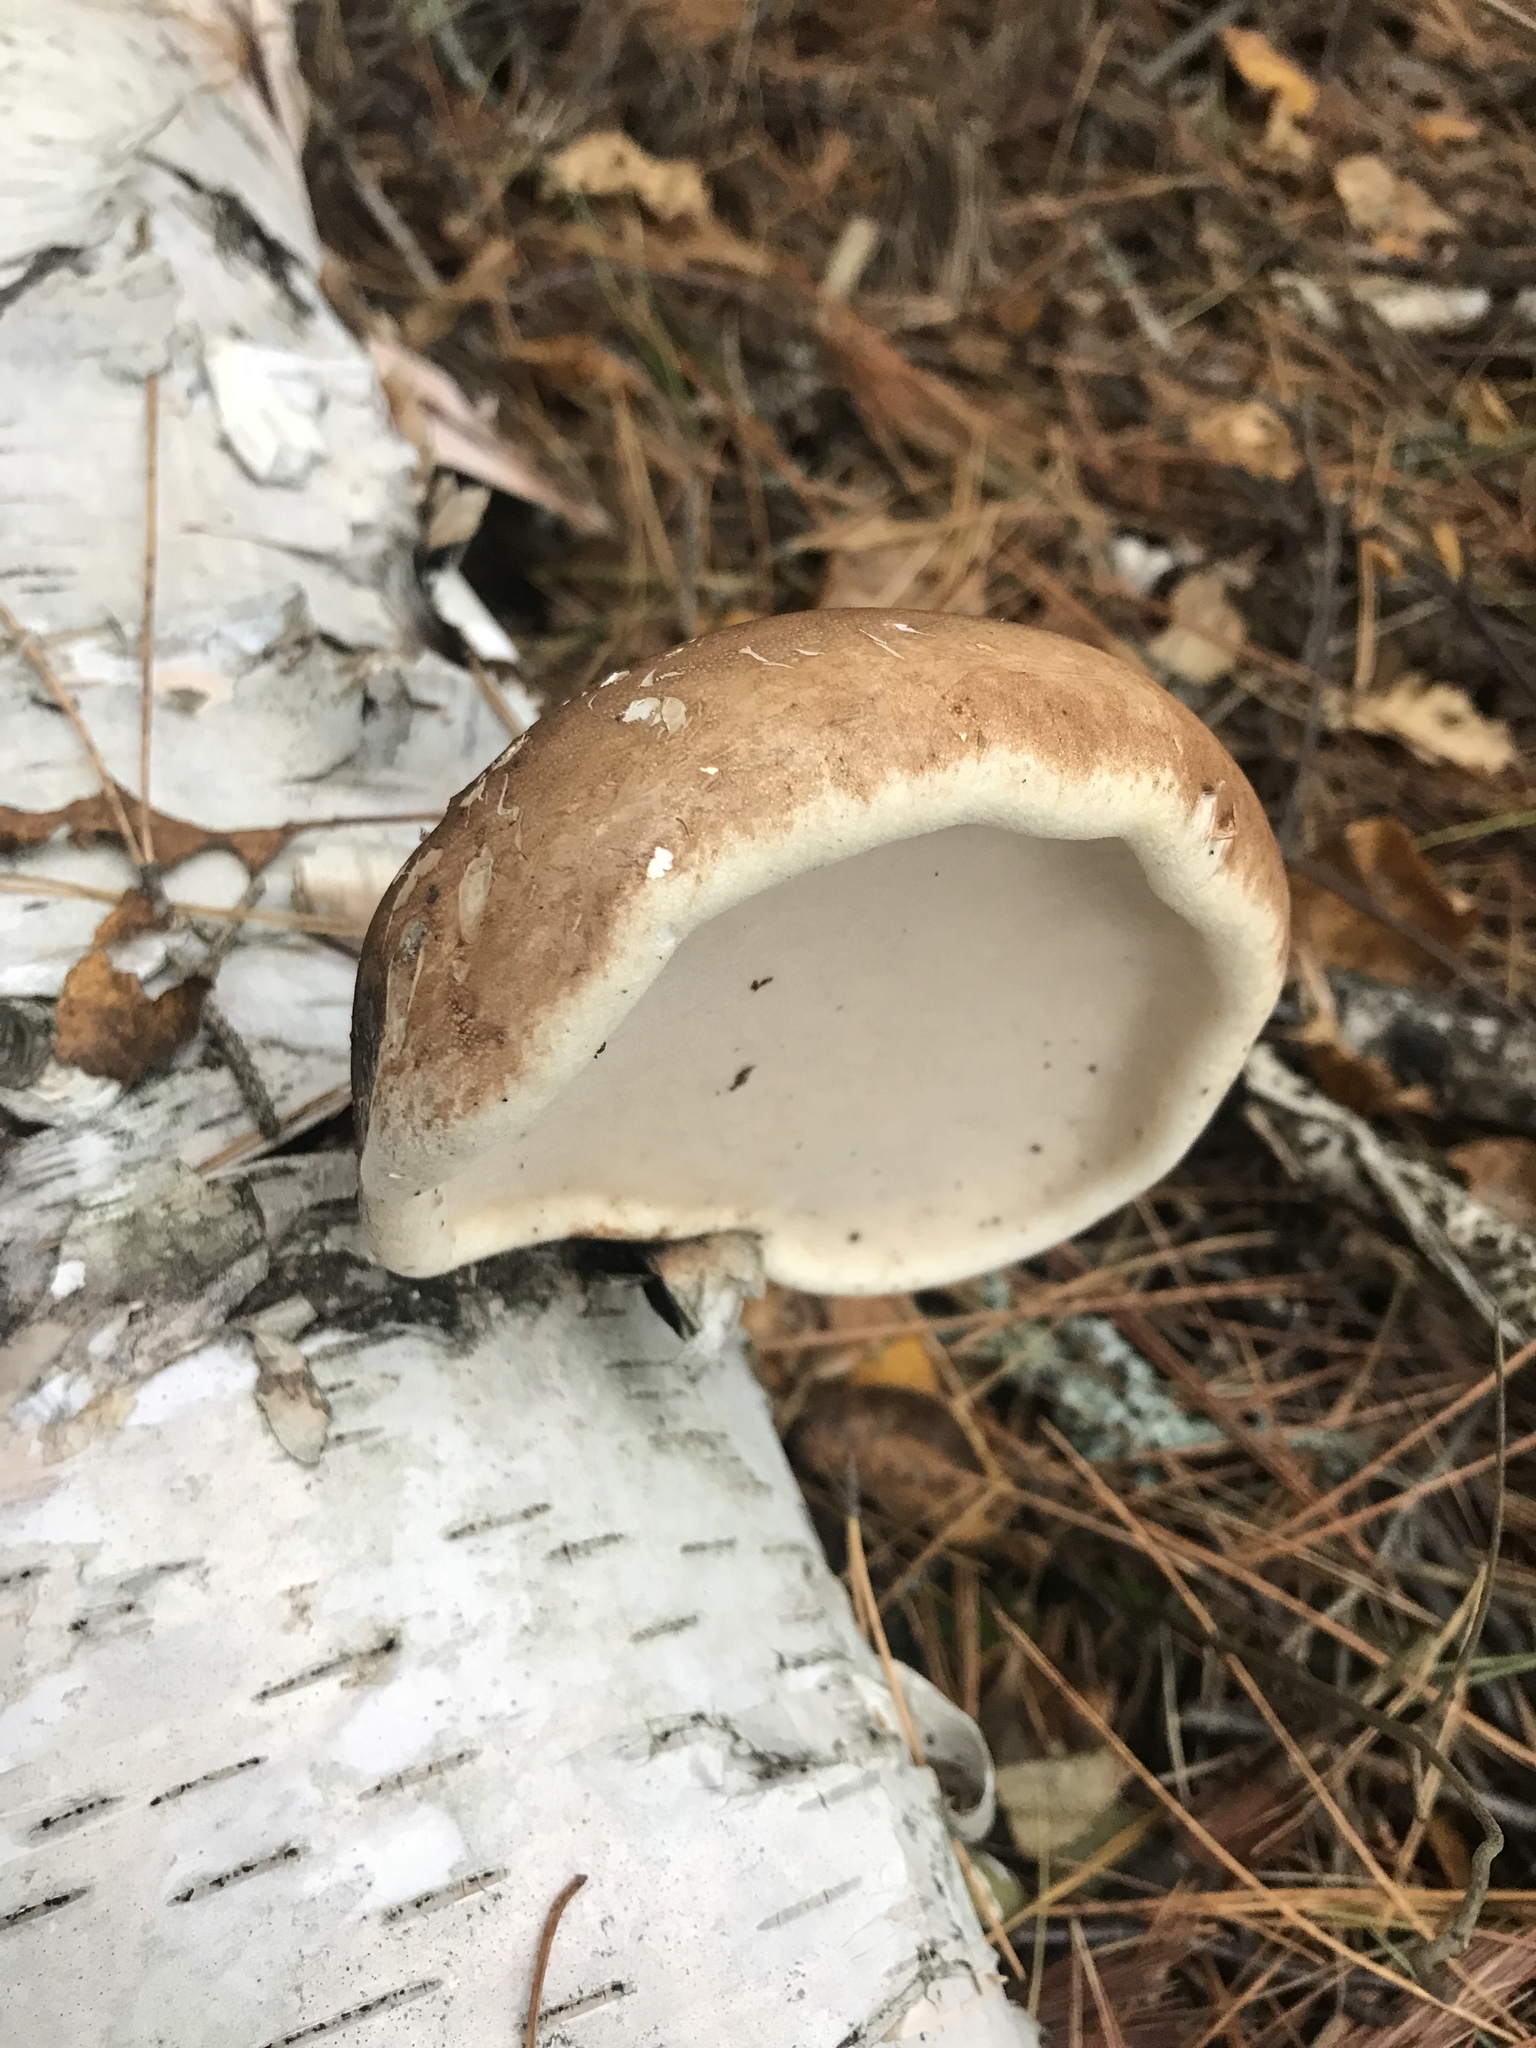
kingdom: Fungi
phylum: Basidiomycota
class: Agaricomycetes
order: Polyporales
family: Fomitopsidaceae
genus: Fomitopsis
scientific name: Fomitopsis betulina
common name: Birch polypore
